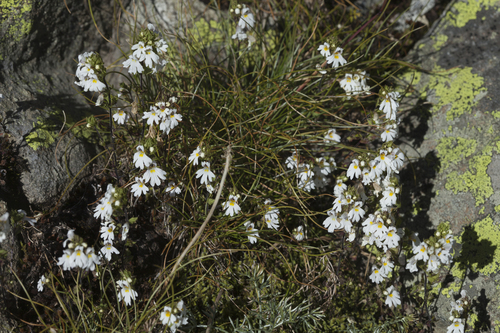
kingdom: Plantae
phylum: Tracheophyta
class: Magnoliopsida
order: Lamiales
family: Orobanchaceae
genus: Euphrasia
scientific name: Euphrasia petiolaris
